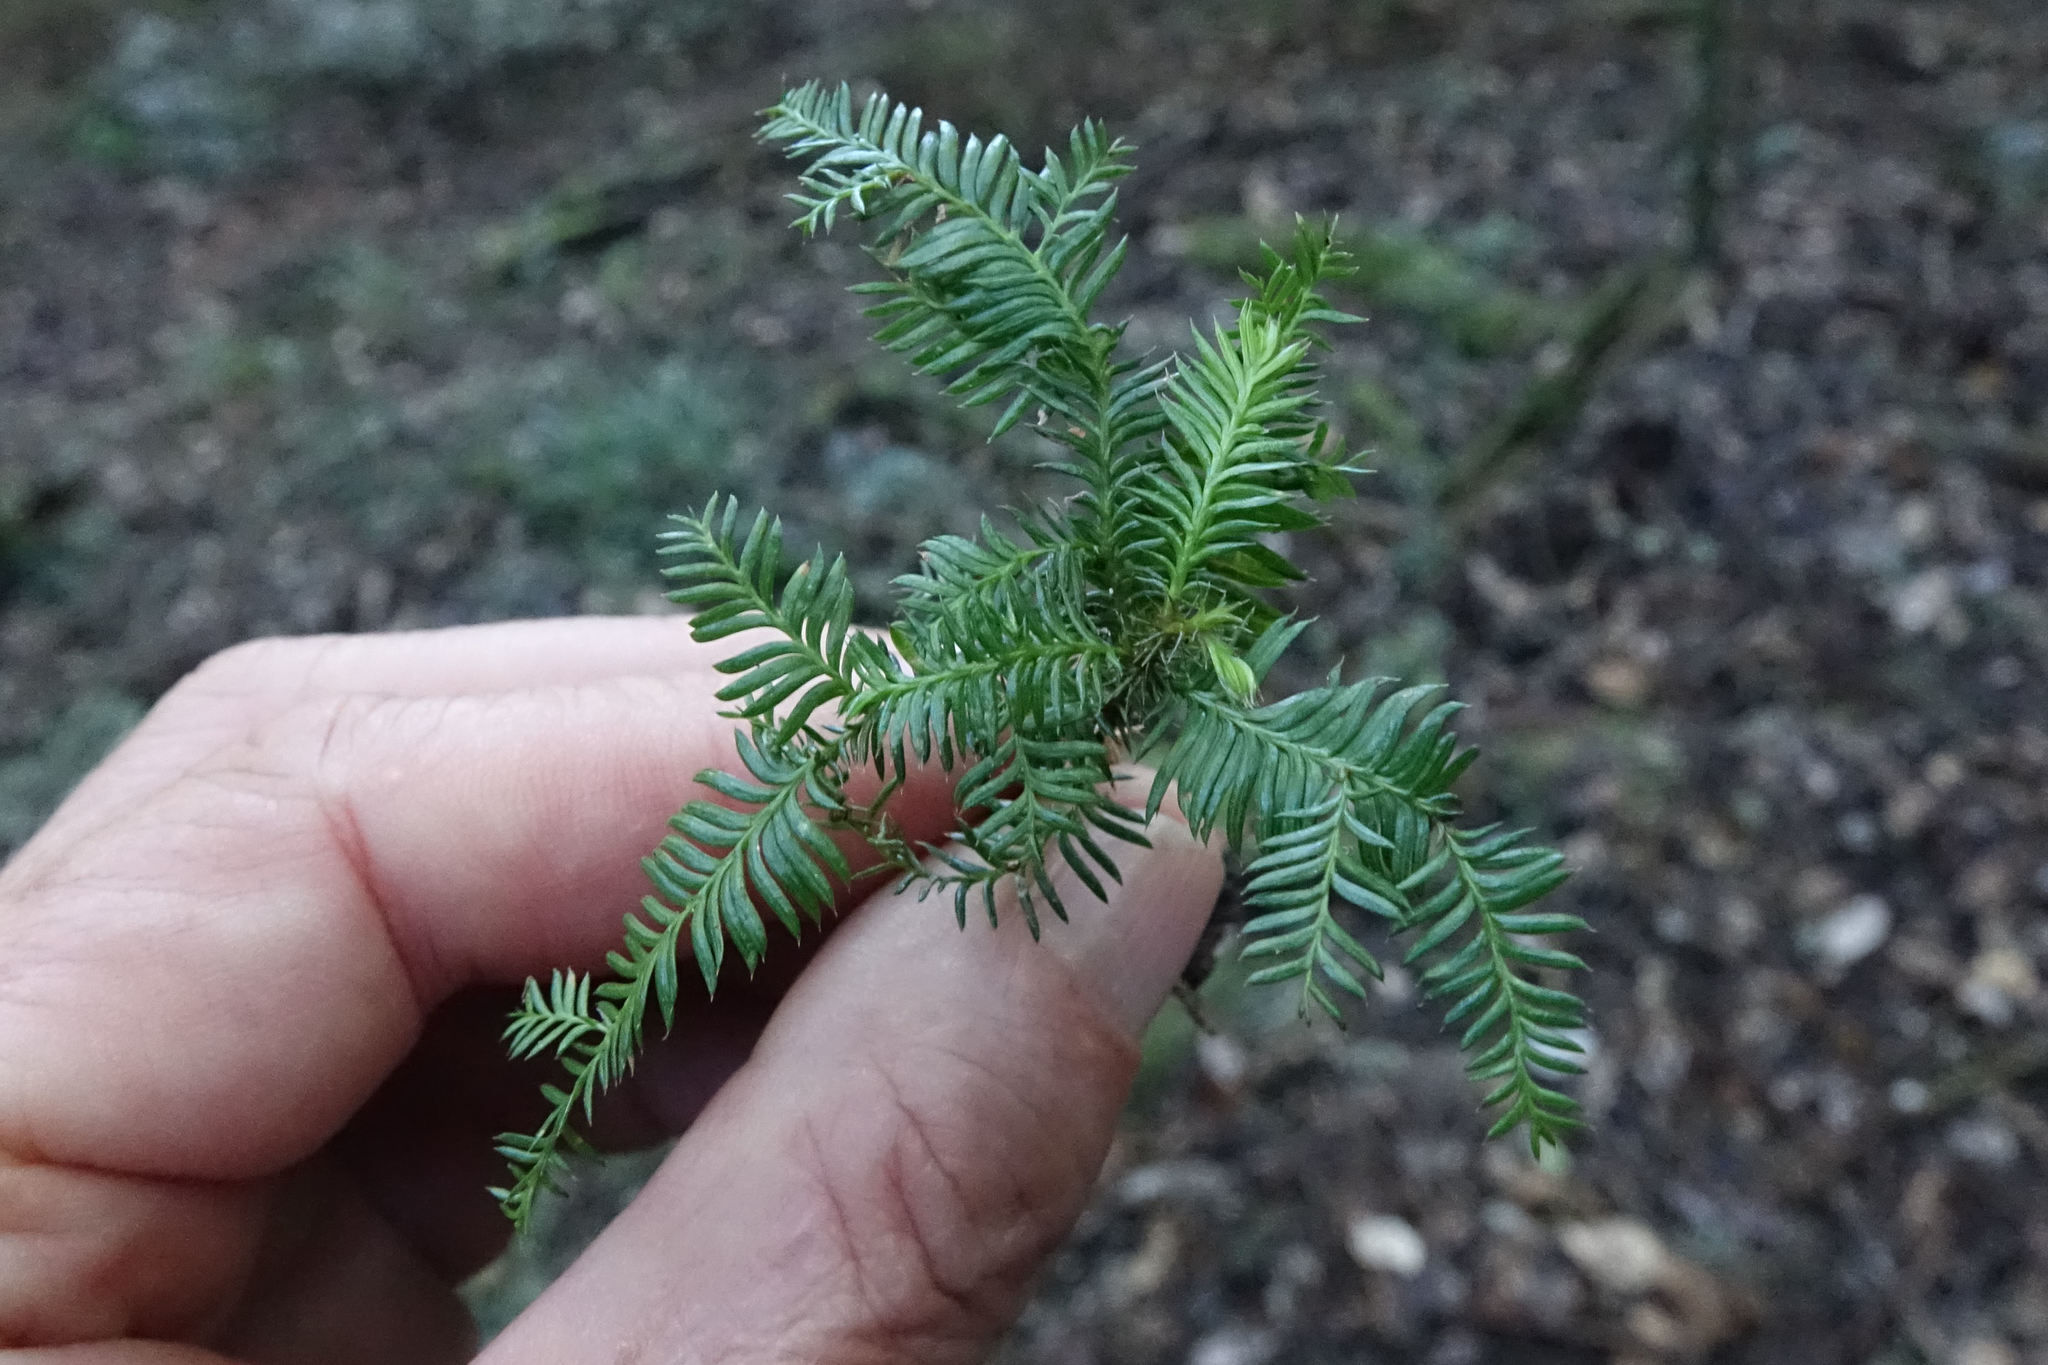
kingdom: Plantae
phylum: Tracheophyta
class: Pinopsida
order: Pinales
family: Podocarpaceae
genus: Dacrycarpus
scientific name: Dacrycarpus dacrydioides
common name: White pine
